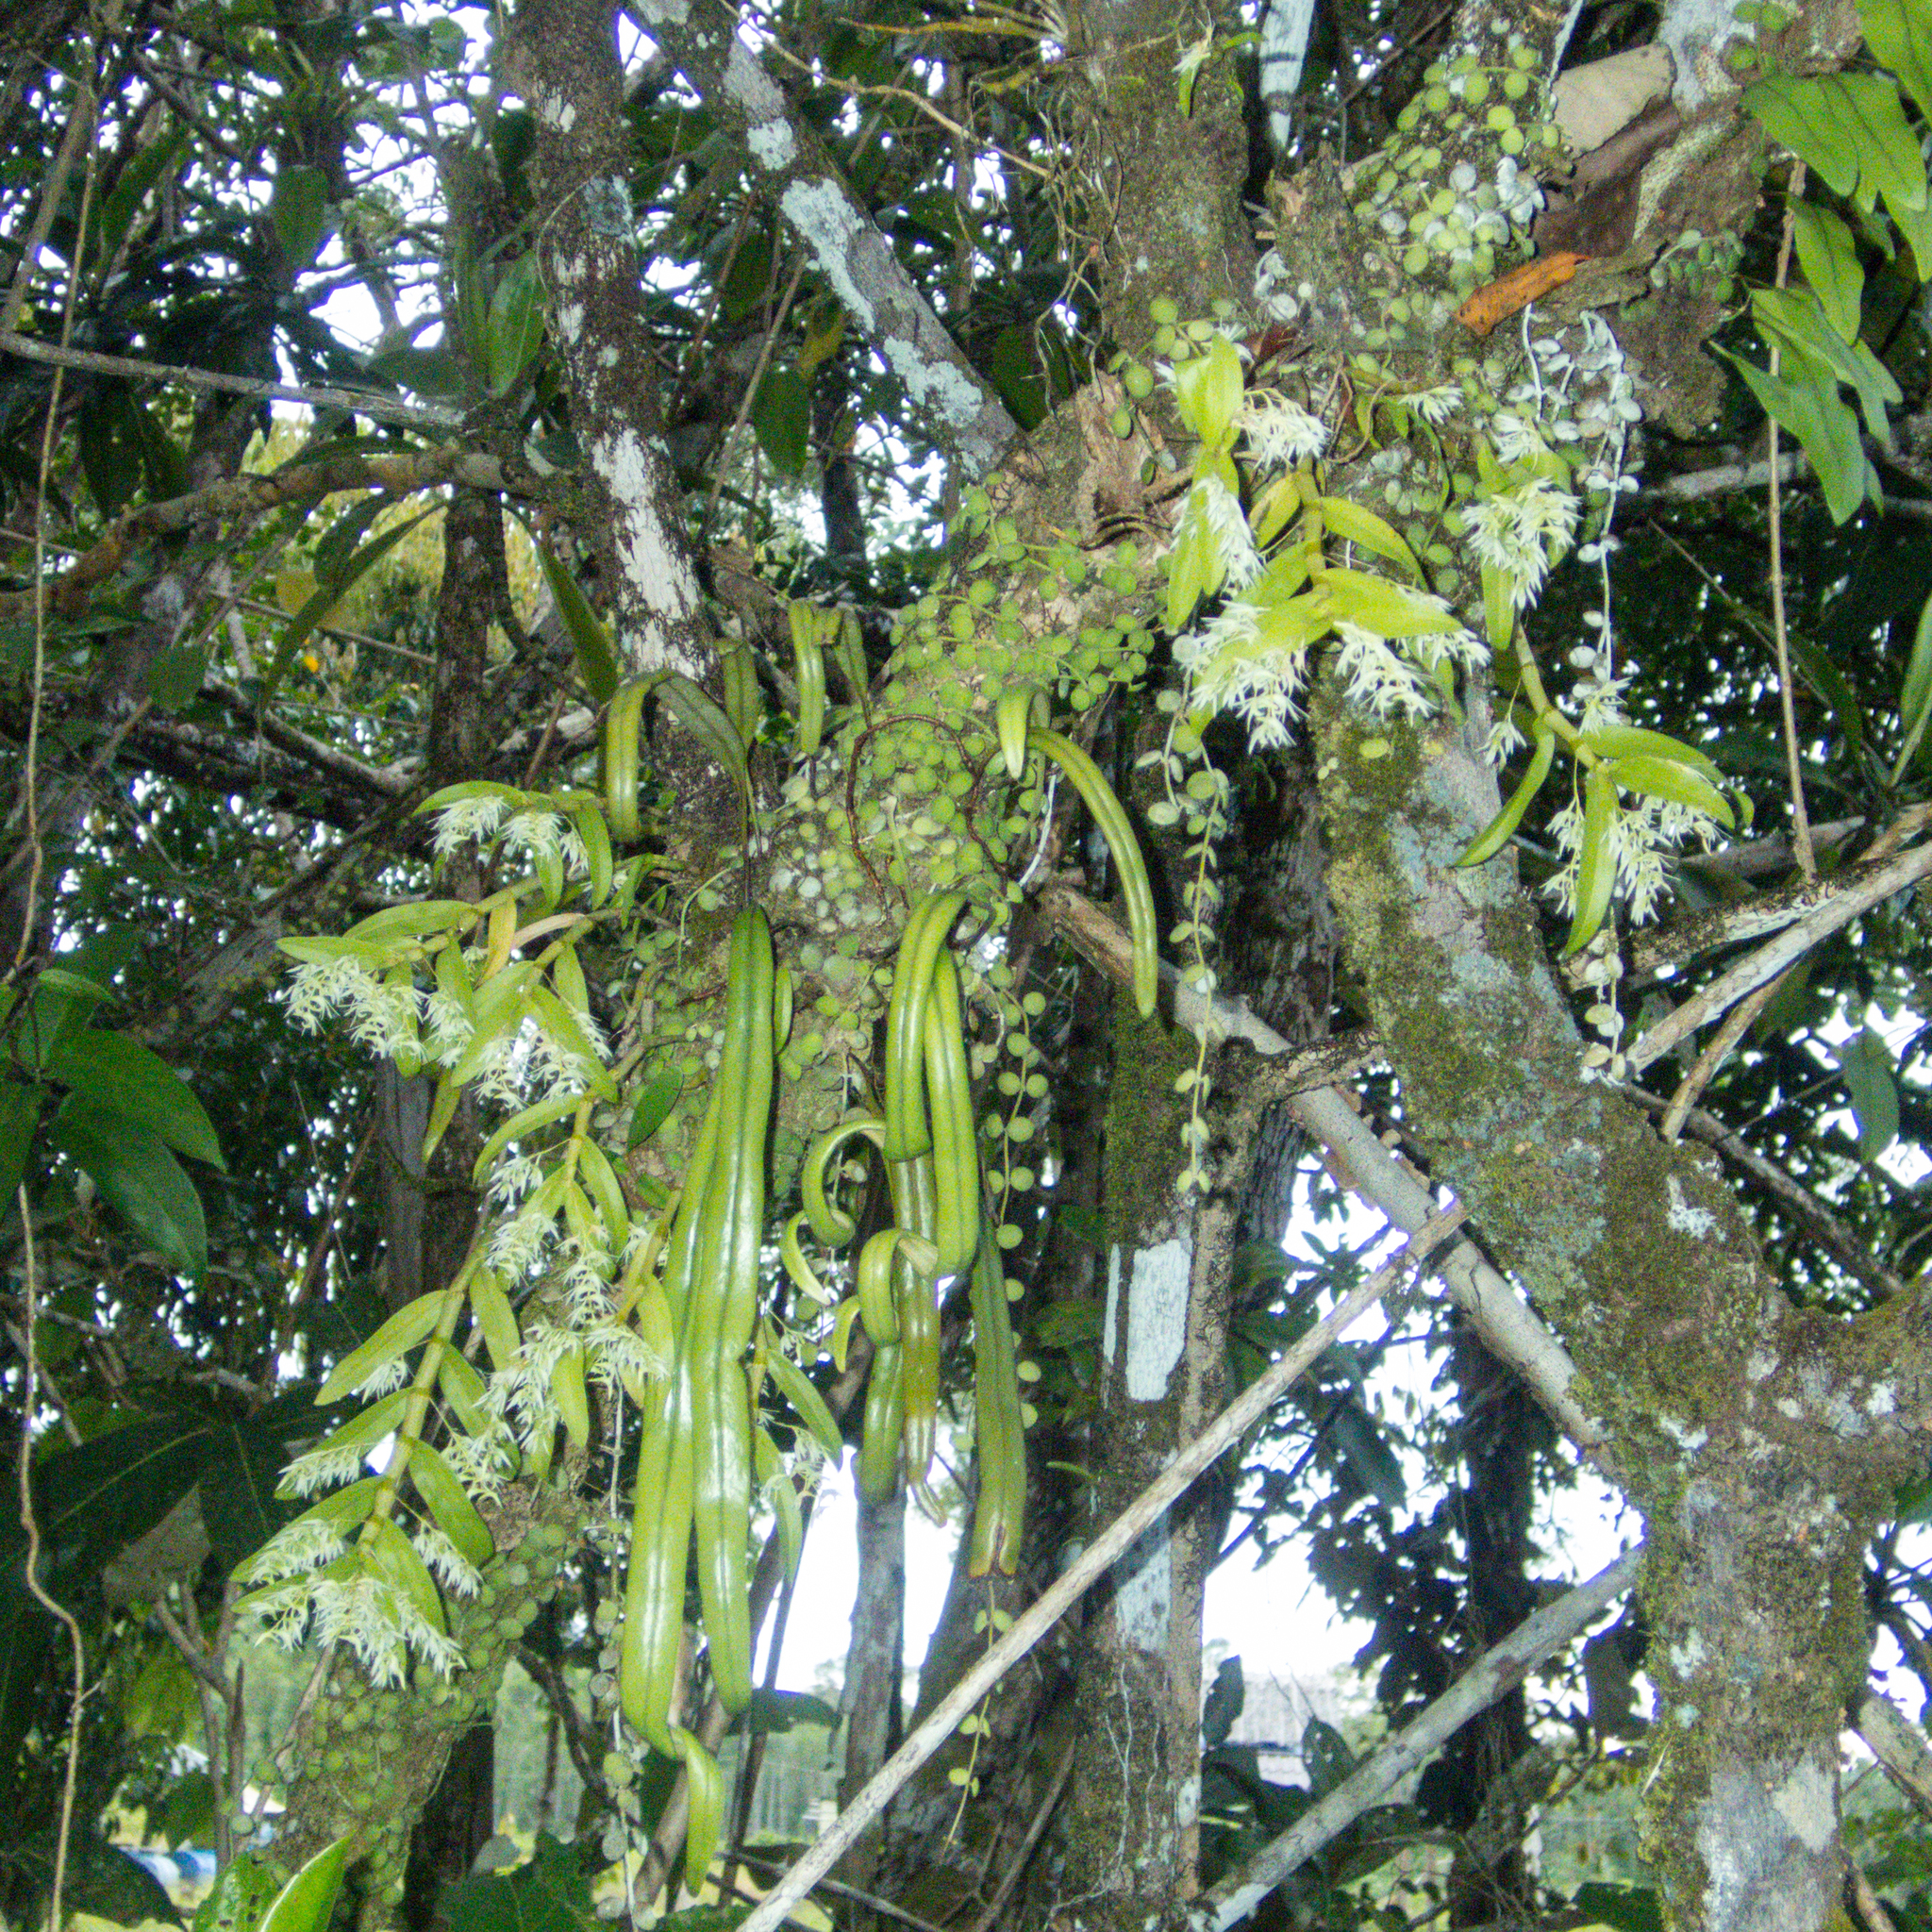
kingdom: Plantae
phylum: Tracheophyta
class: Liliopsida
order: Asparagales
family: Orchidaceae
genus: Dendrobium
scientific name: Dendrobium kratense
